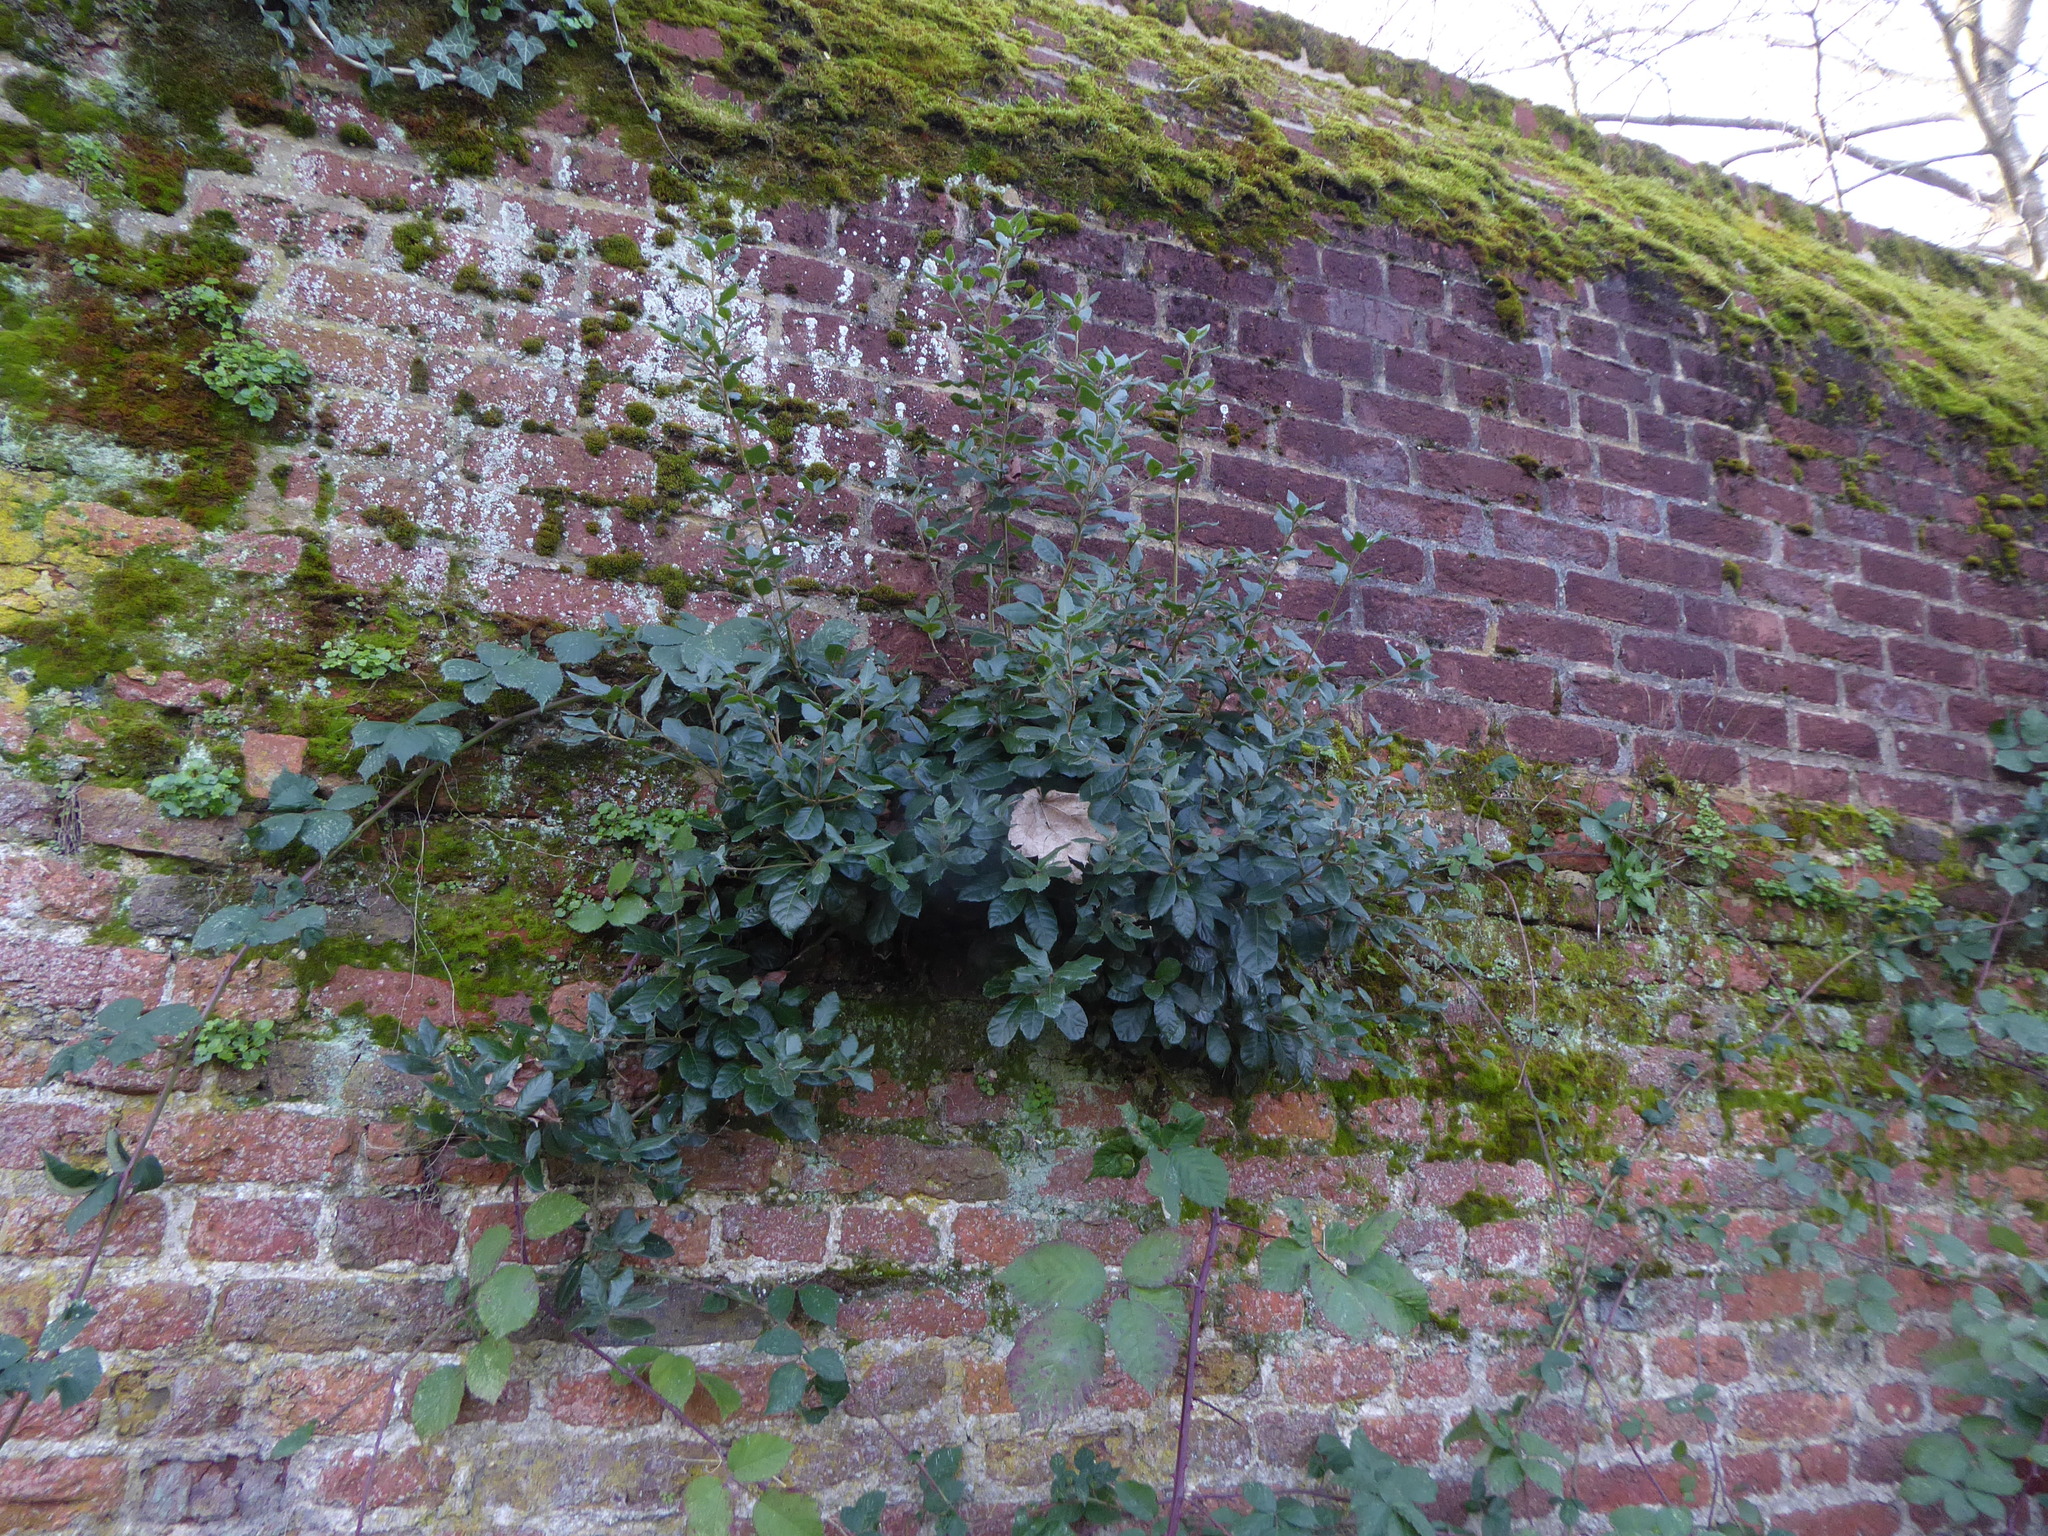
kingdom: Plantae
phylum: Tracheophyta
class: Magnoliopsida
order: Fagales
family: Fagaceae
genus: Quercus
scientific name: Quercus ilex
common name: Evergreen oak
